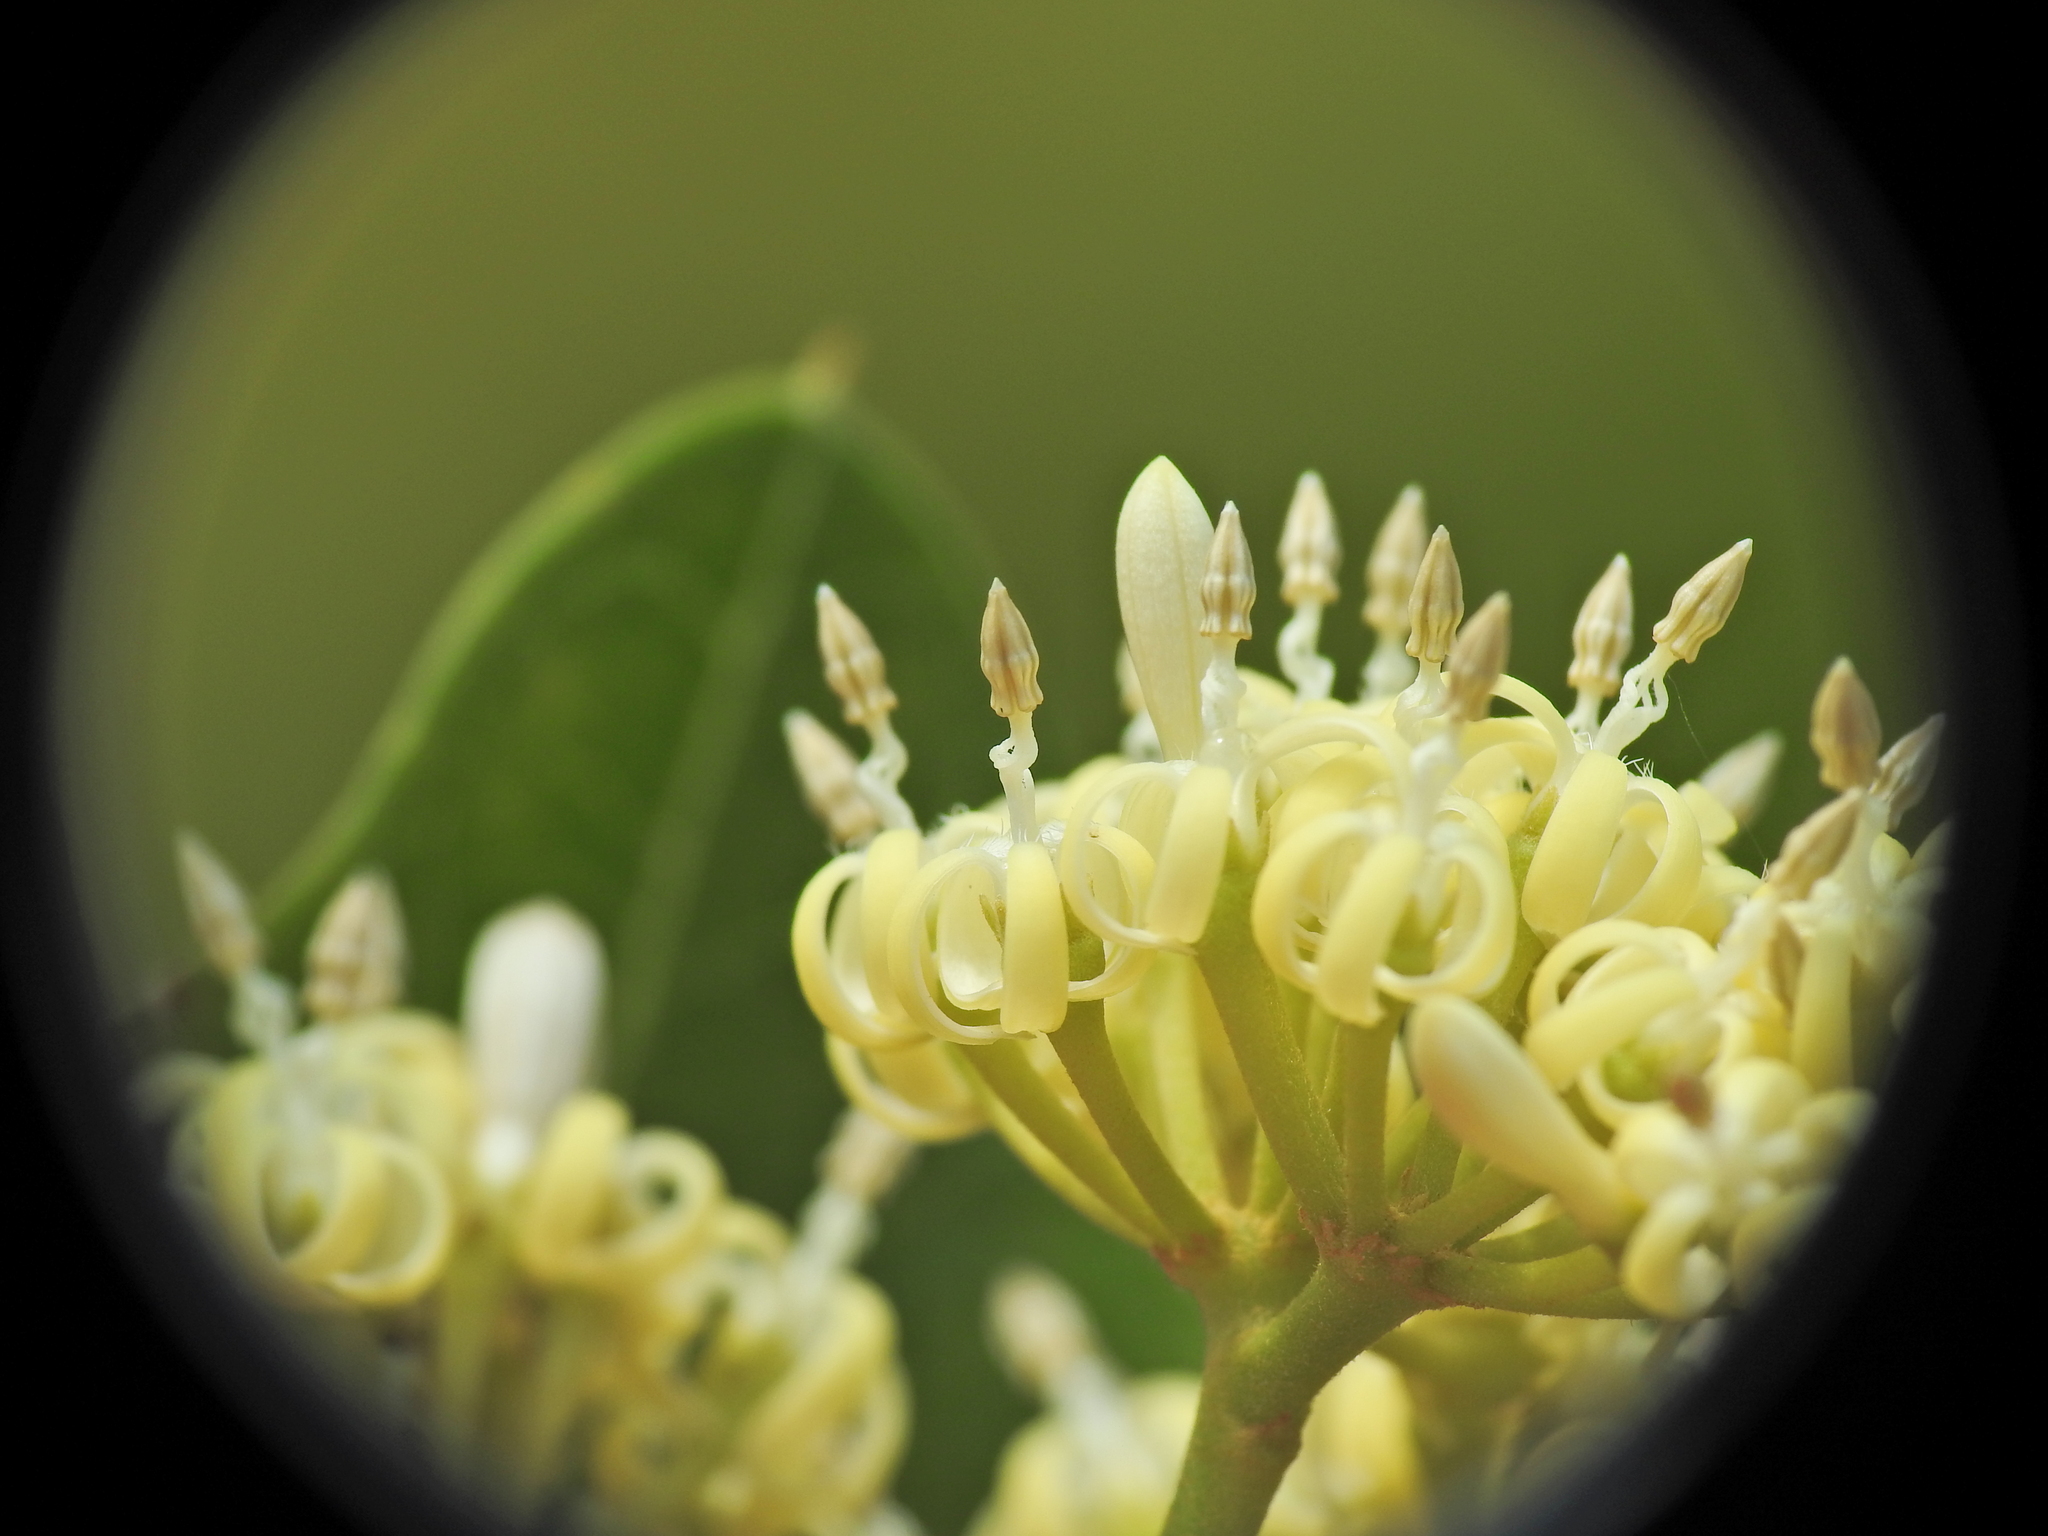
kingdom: Plantae
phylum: Tracheophyta
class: Magnoliopsida
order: Gentianales
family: Apocynaceae
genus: Parsonsia
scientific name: Parsonsia plaesiophylla
